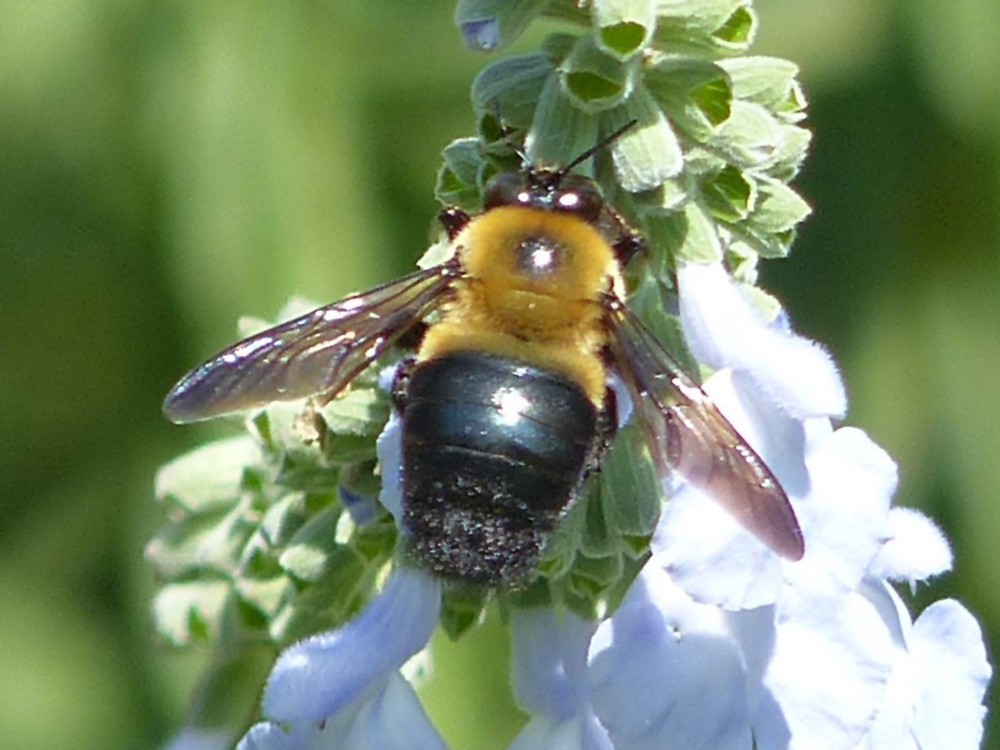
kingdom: Animalia
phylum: Arthropoda
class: Insecta
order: Hymenoptera
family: Apidae
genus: Xylocopa
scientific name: Xylocopa virginica
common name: Carpenter bee
